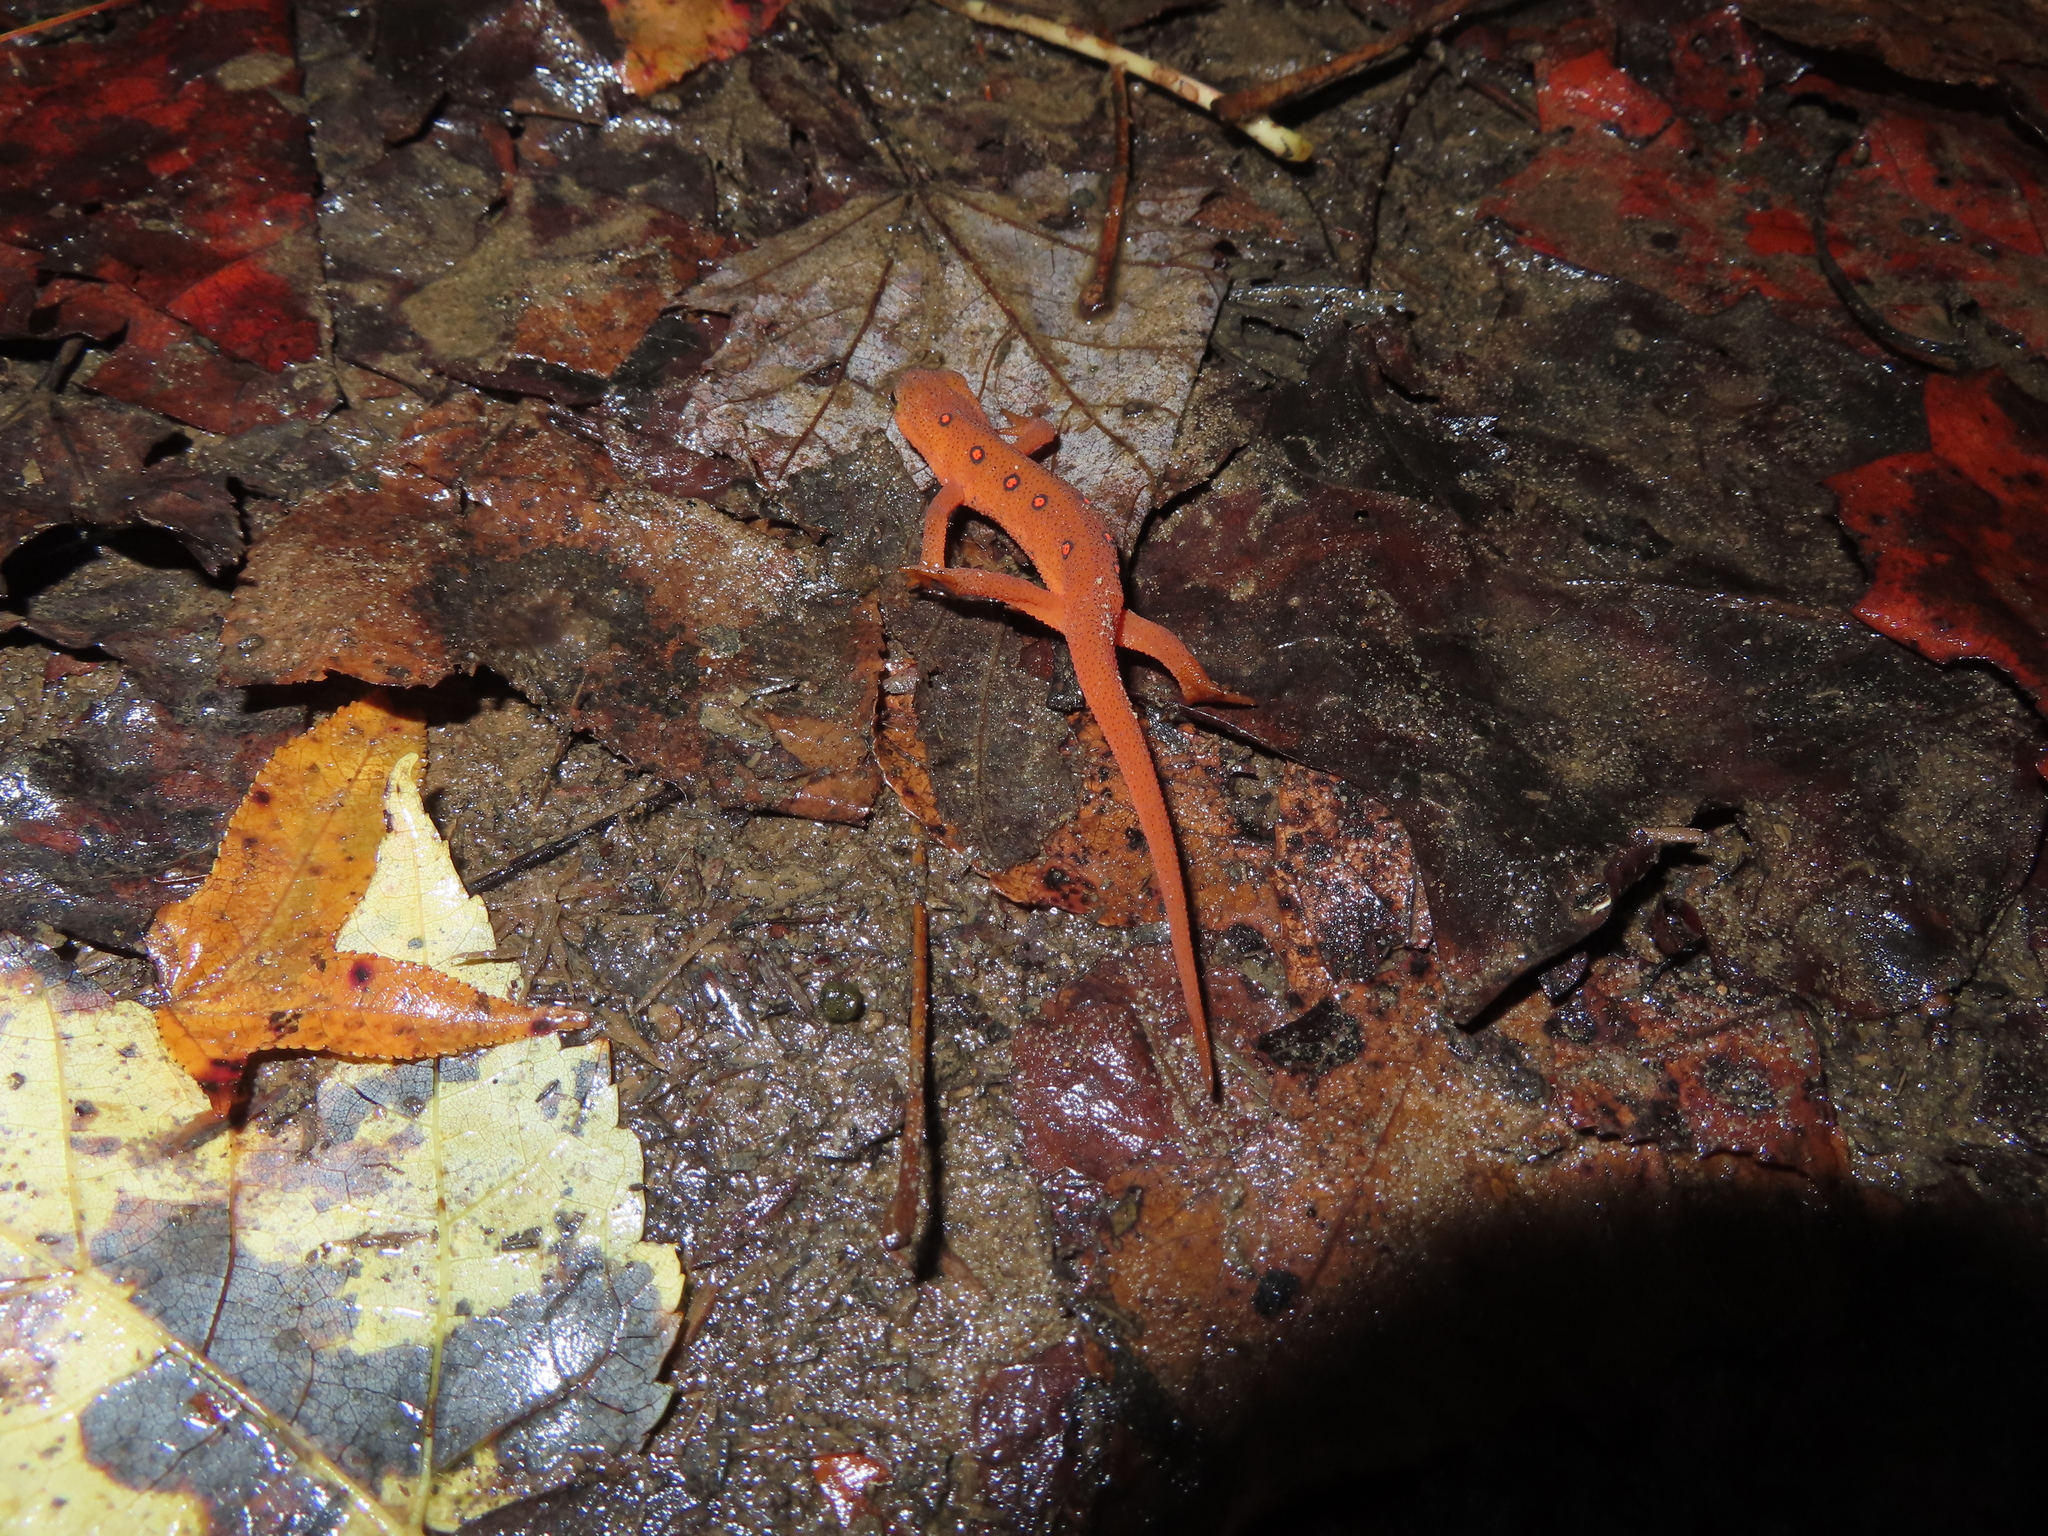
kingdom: Animalia
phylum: Chordata
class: Amphibia
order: Caudata
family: Salamandridae
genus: Notophthalmus
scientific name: Notophthalmus viridescens
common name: Eastern newt
